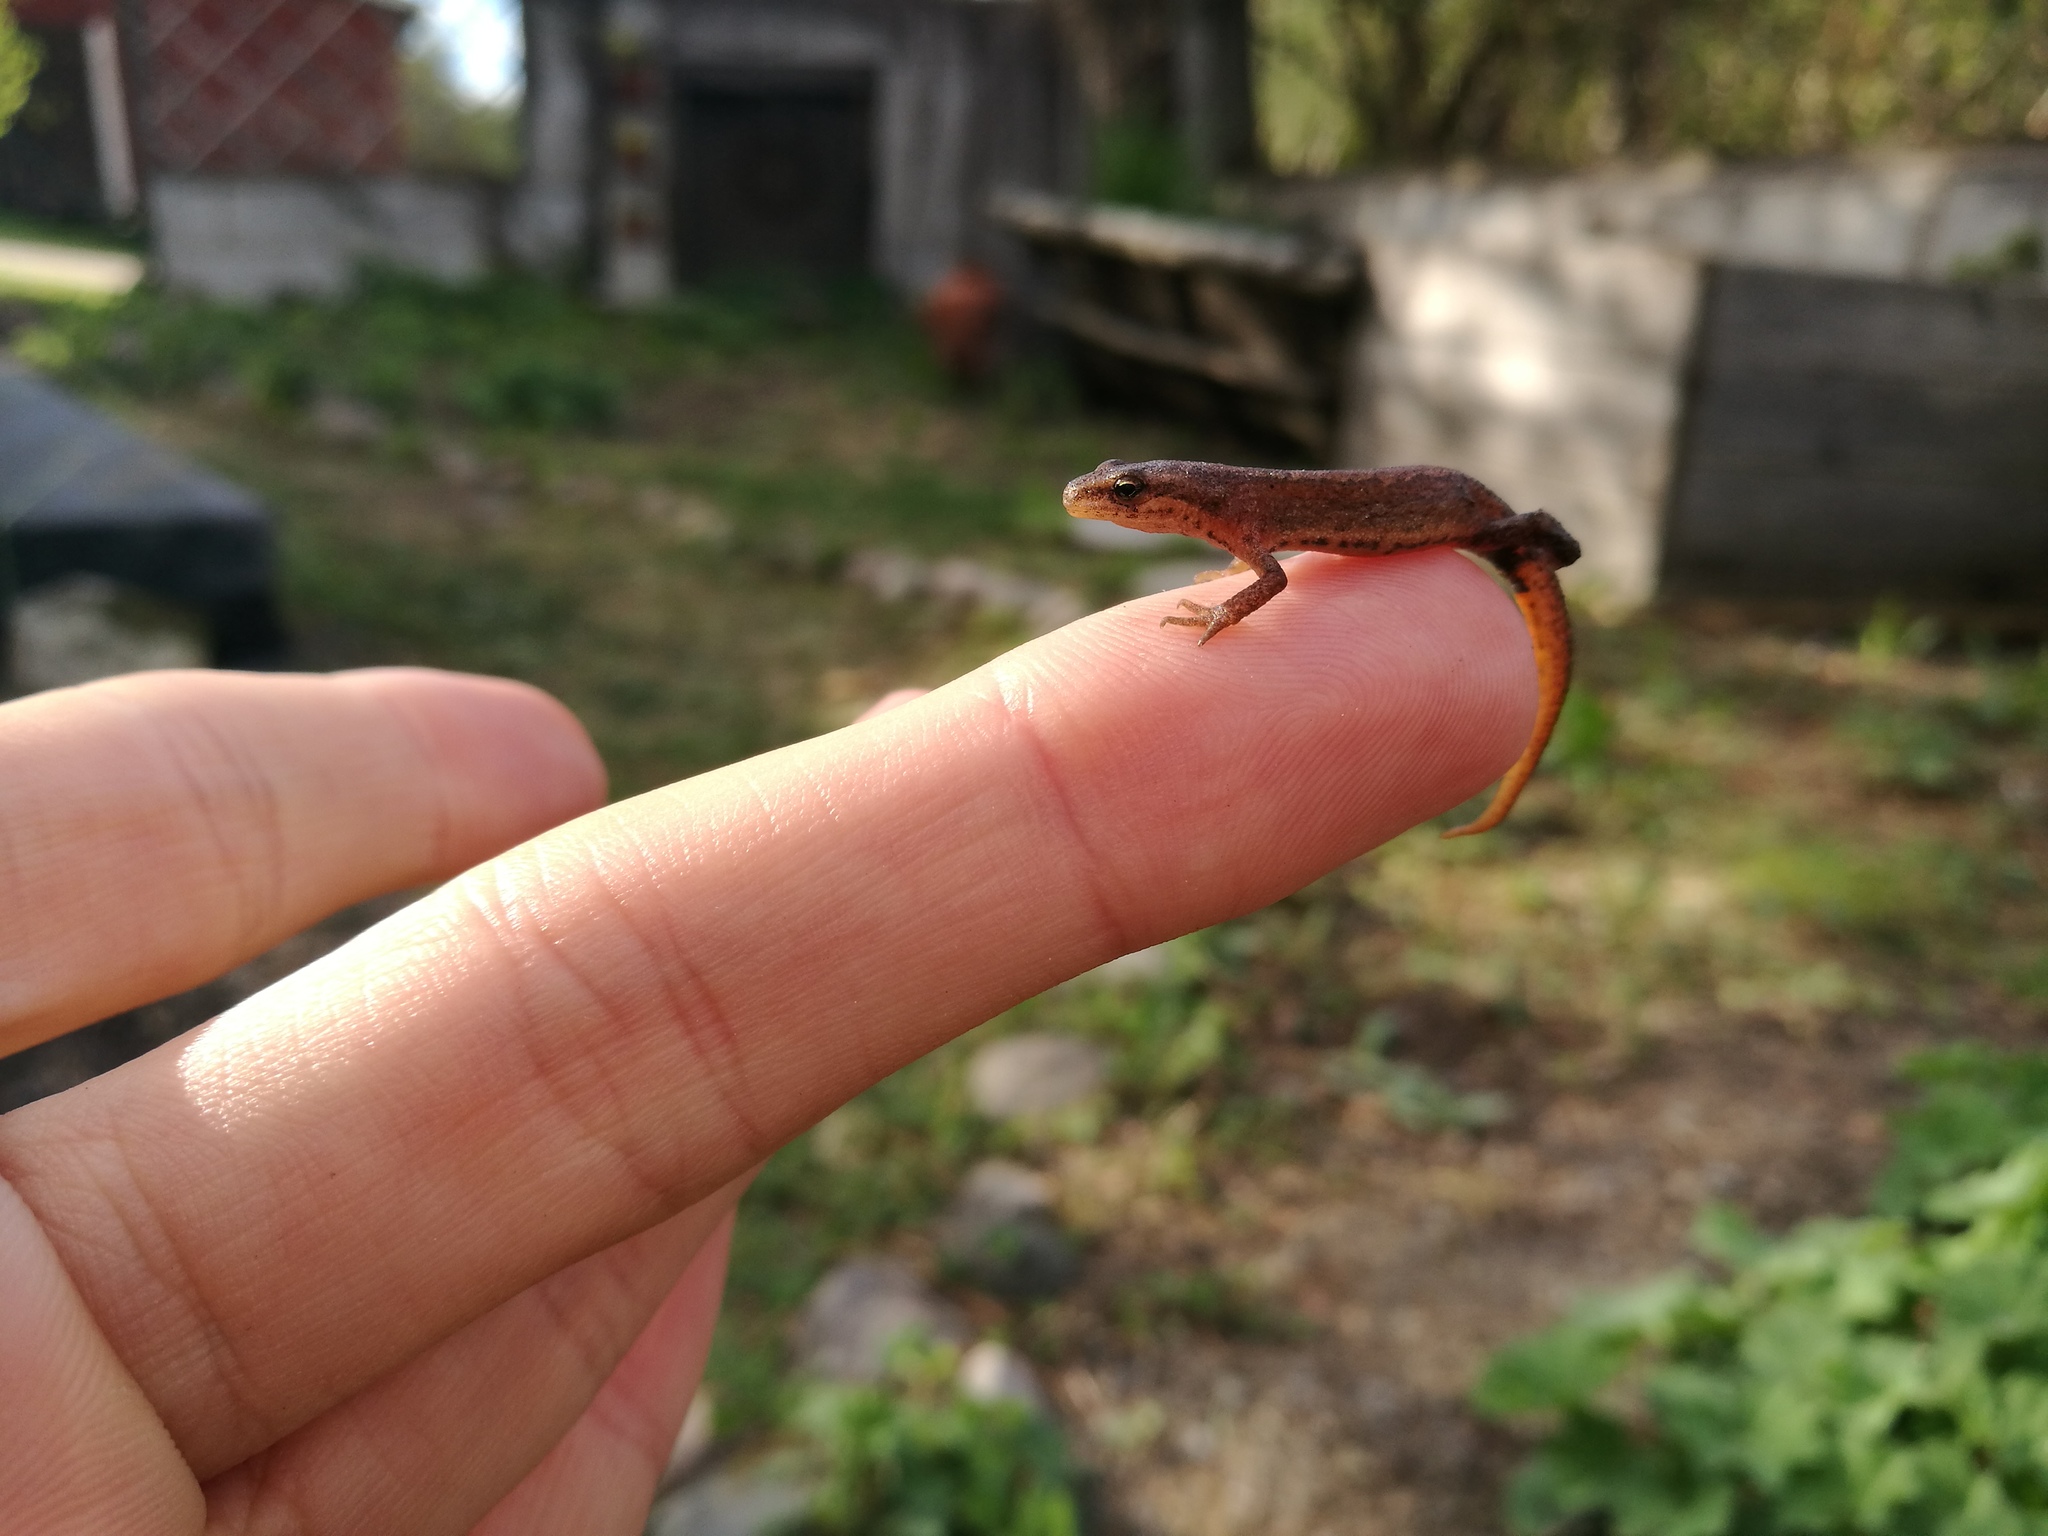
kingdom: Animalia
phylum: Chordata
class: Amphibia
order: Caudata
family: Salamandridae
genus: Lissotriton
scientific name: Lissotriton vulgaris
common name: Smooth newt
